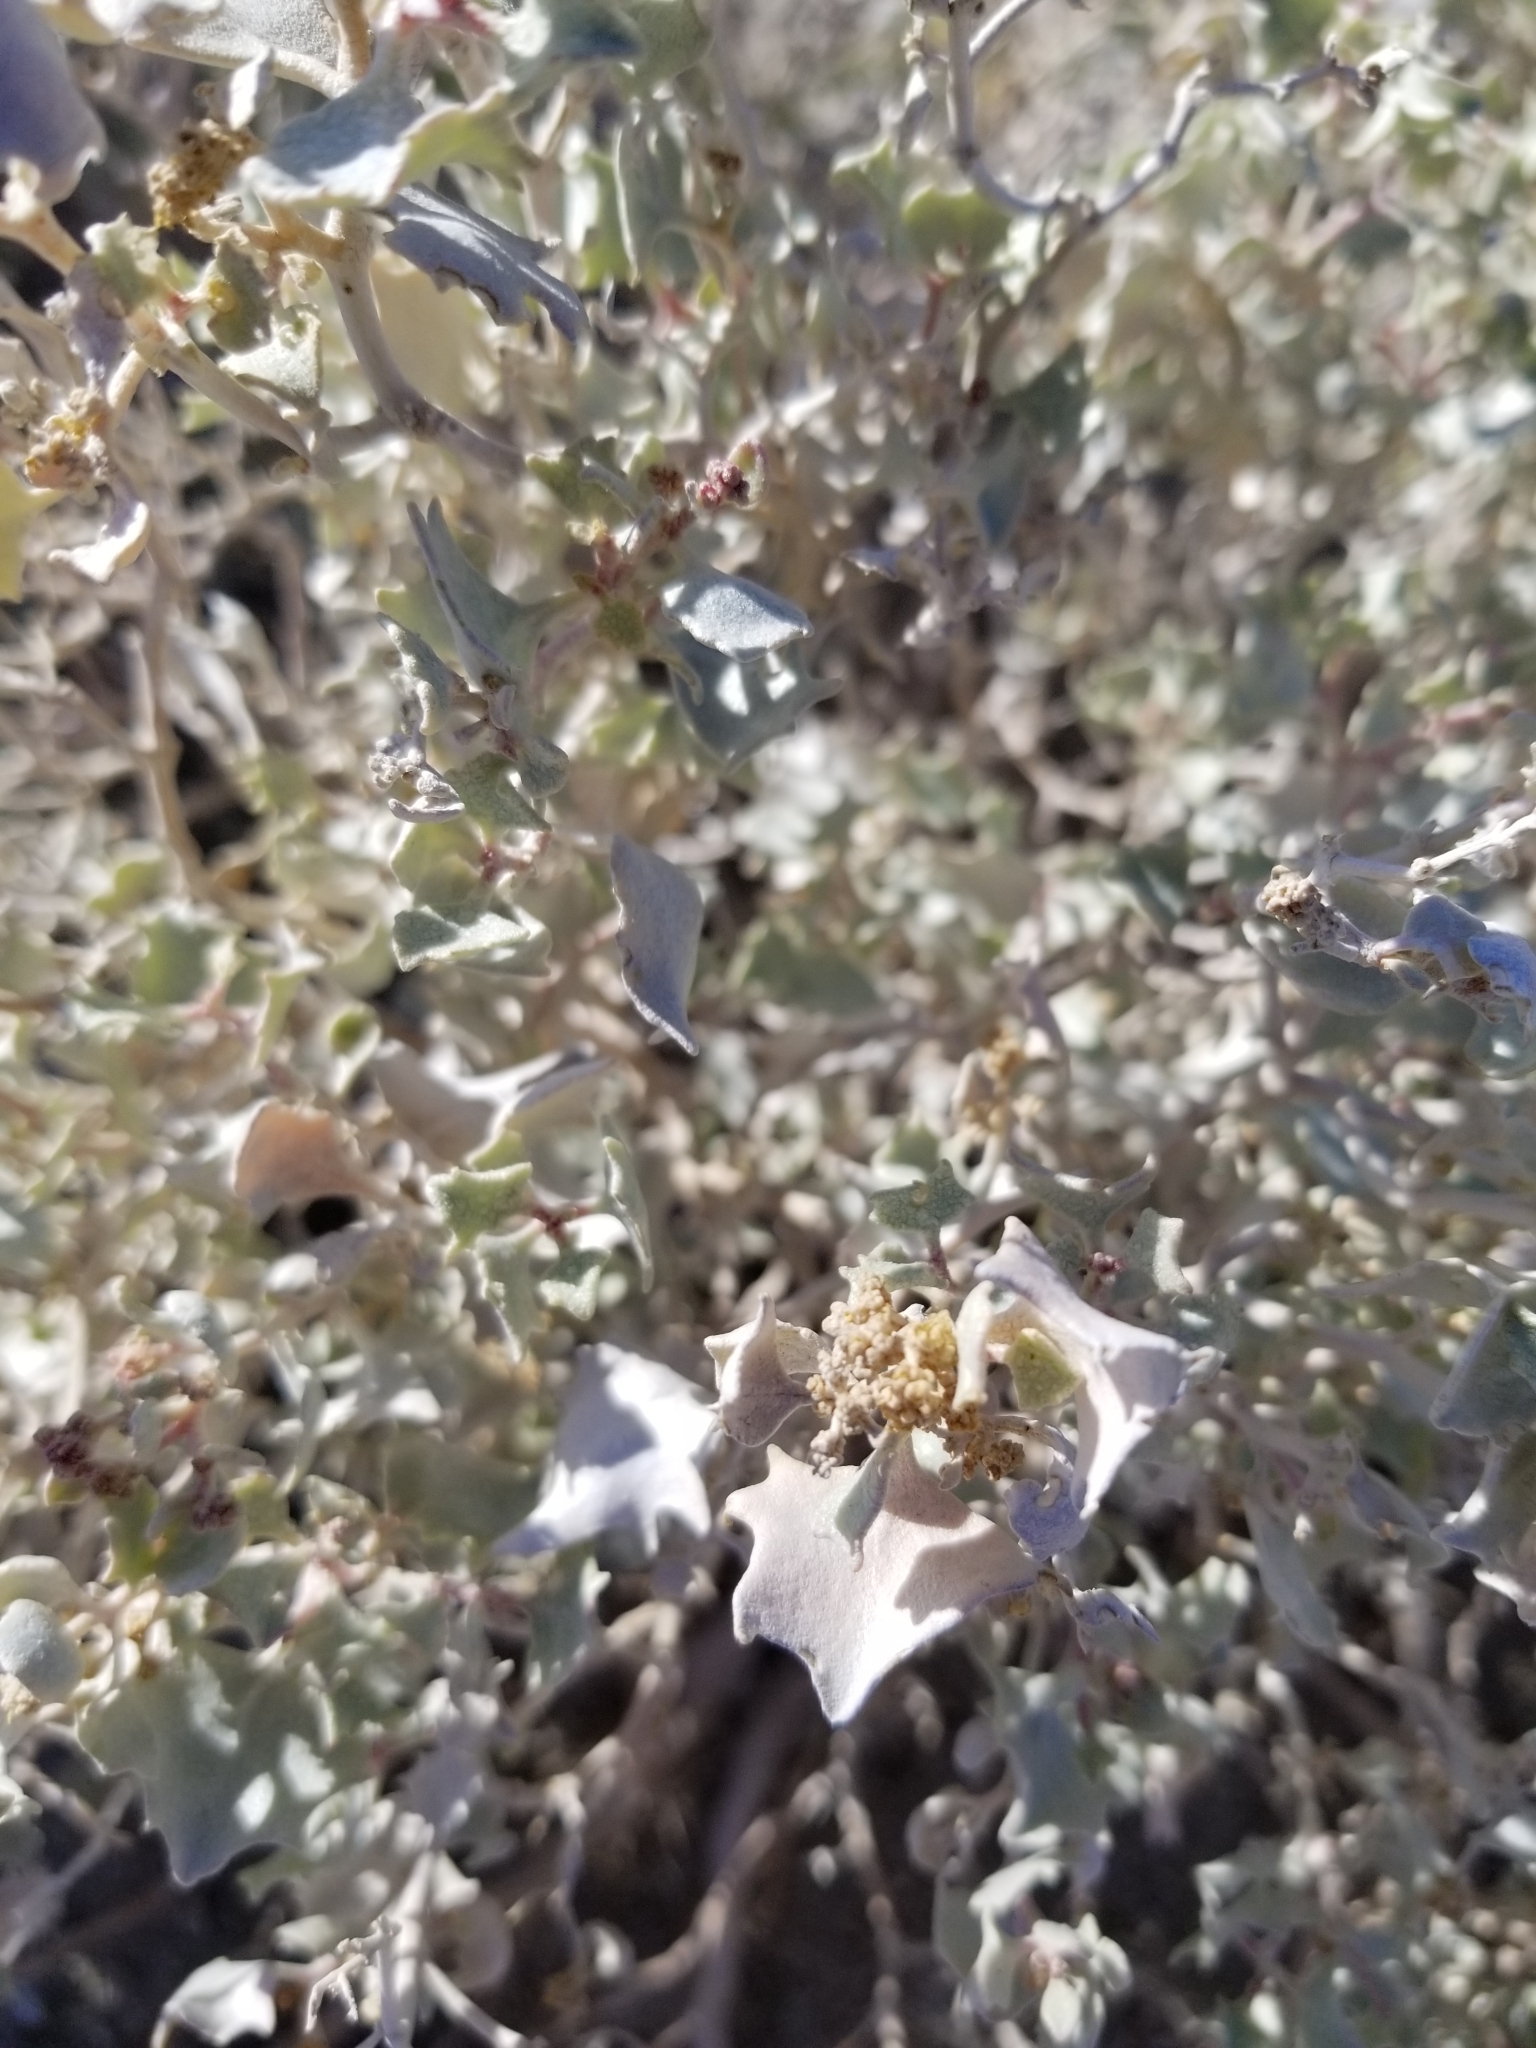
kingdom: Plantae
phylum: Tracheophyta
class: Magnoliopsida
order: Caryophyllales
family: Amaranthaceae
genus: Atriplex
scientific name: Atriplex hymenelytra
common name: Desert-holly
